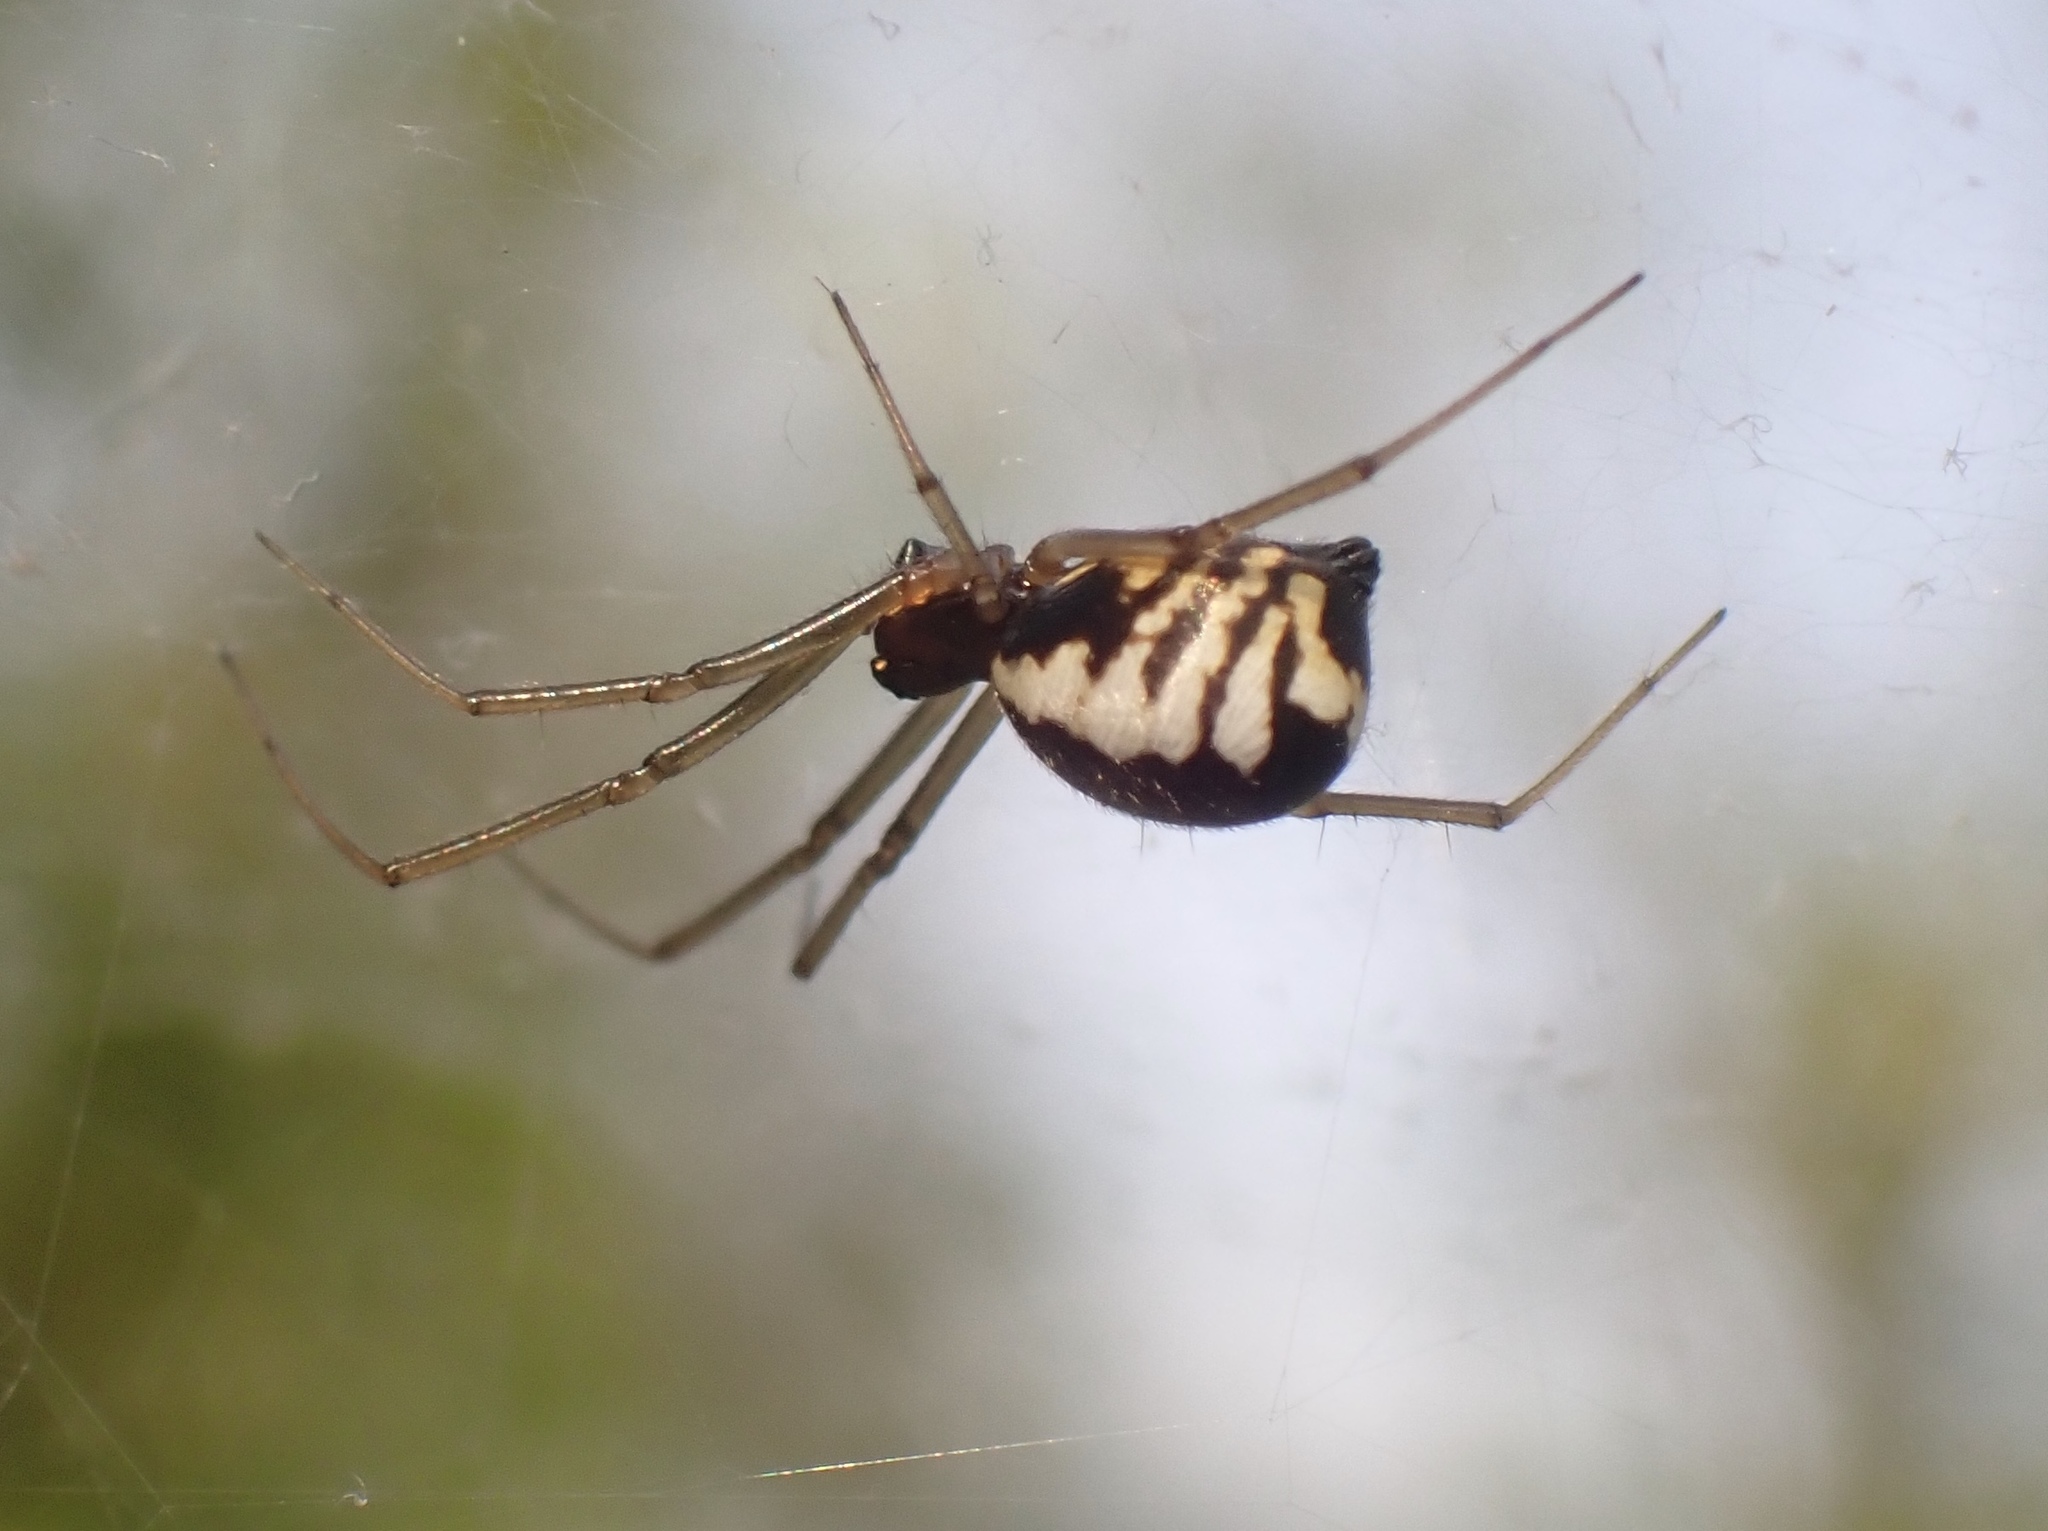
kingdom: Animalia
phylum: Arthropoda
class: Arachnida
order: Araneae
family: Linyphiidae
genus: Frontinella
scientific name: Frontinella pyramitela
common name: Bowl-and-doily spider
